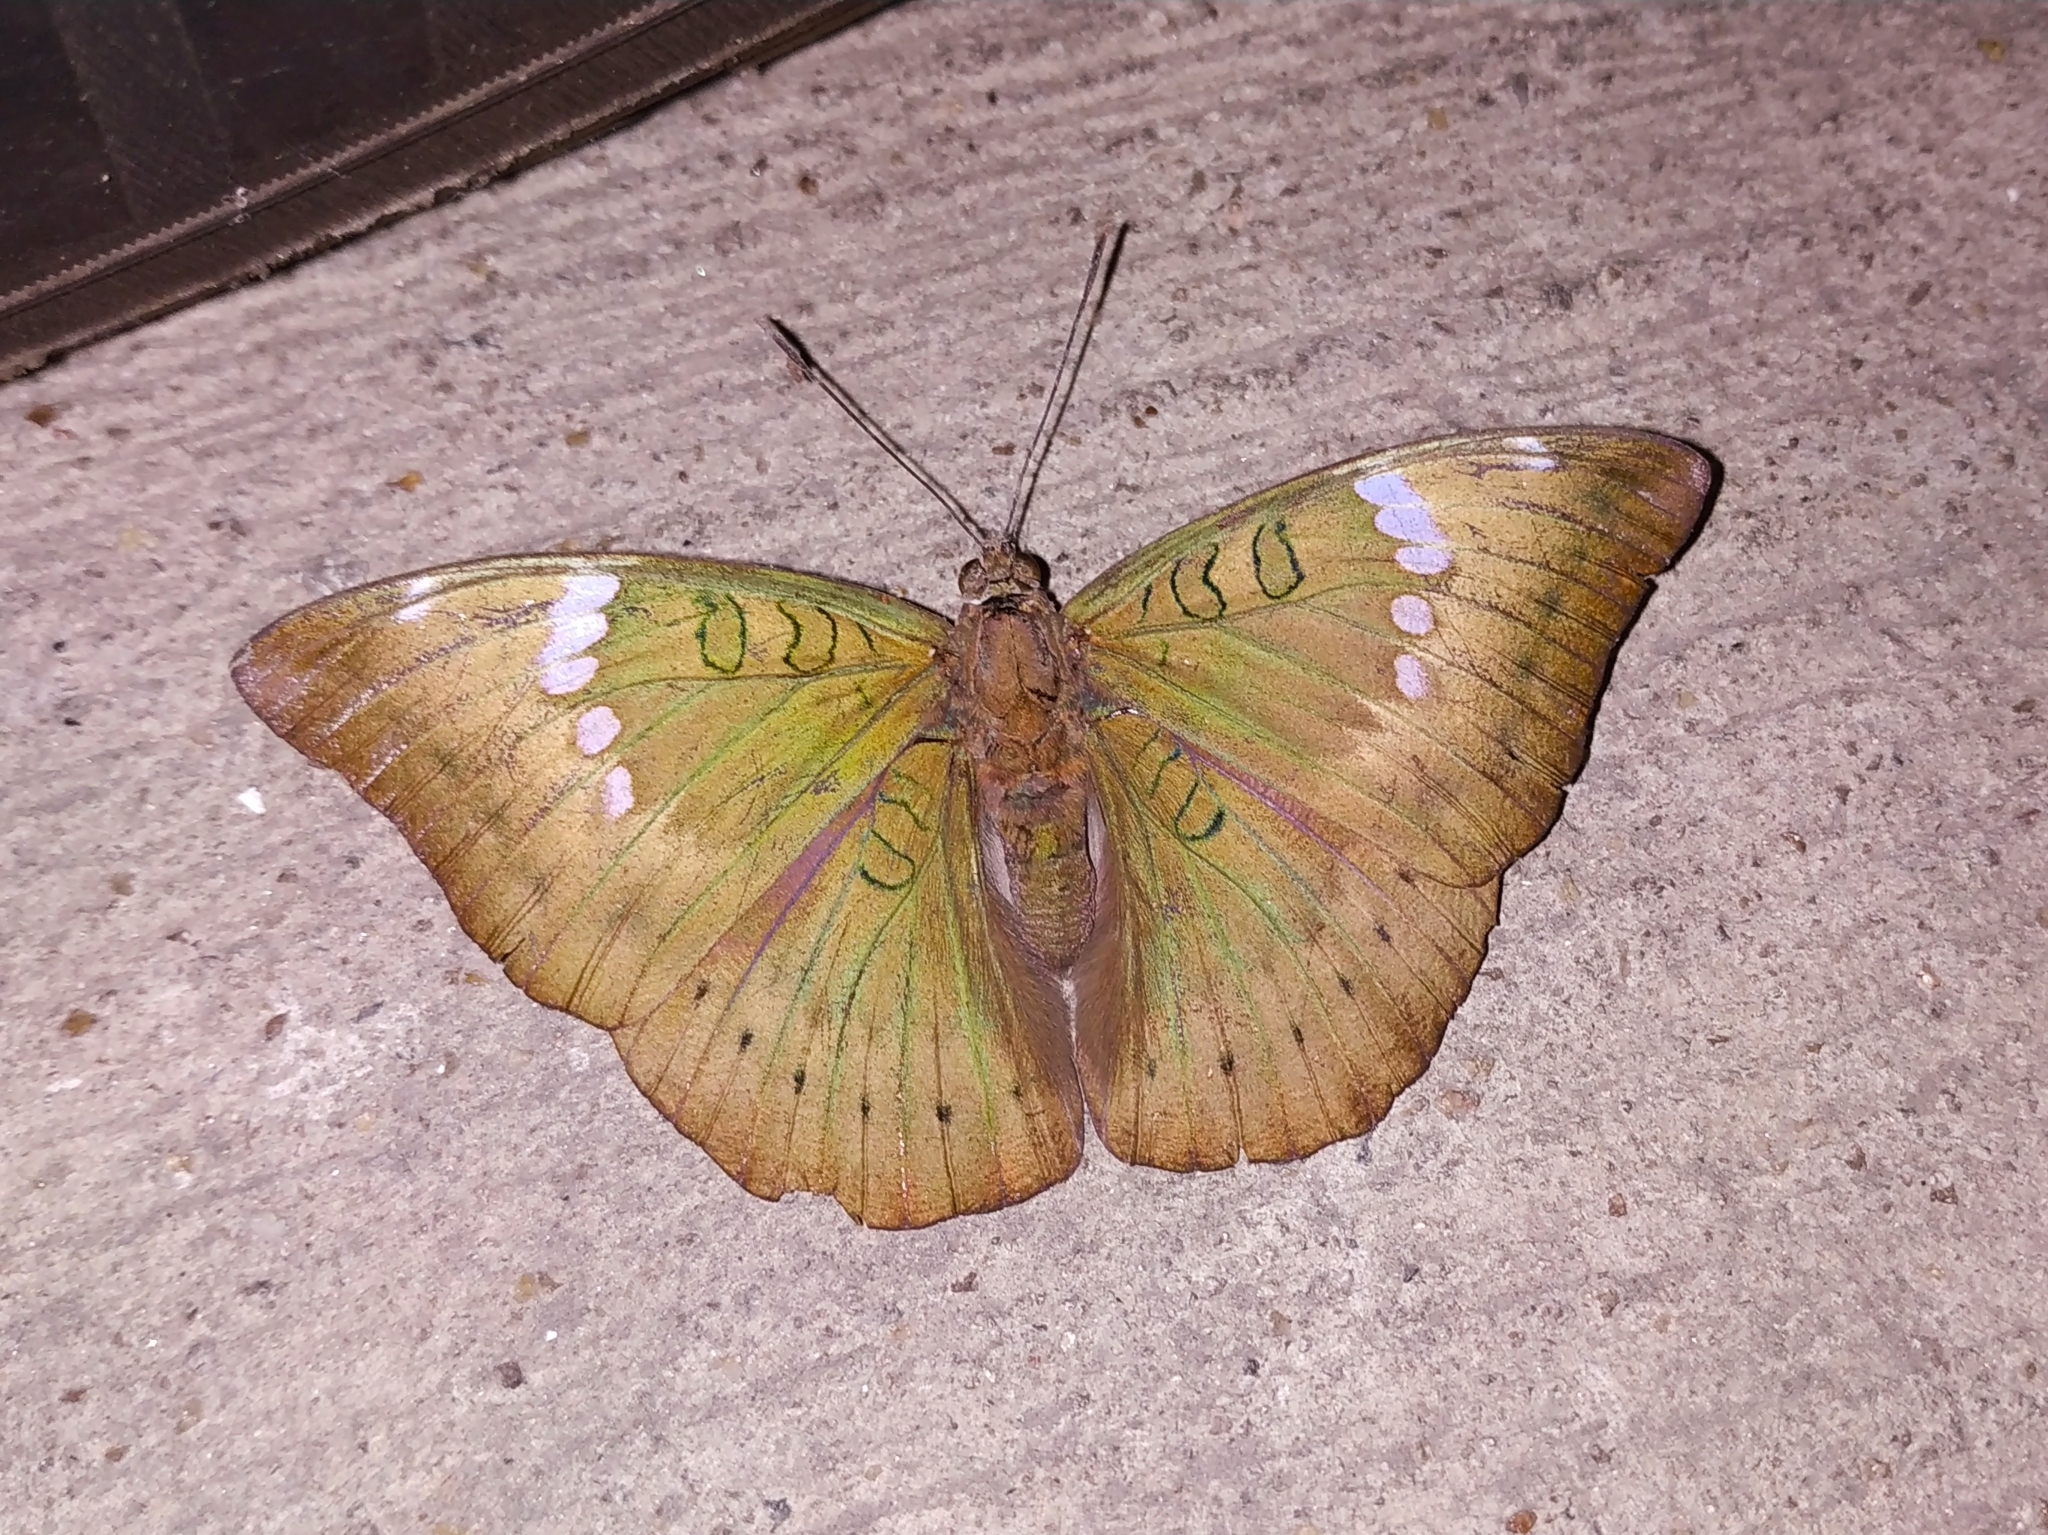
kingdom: Animalia
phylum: Arthropoda
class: Insecta
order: Lepidoptera
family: Nymphalidae
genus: Euthalia
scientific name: Euthalia aconthea
